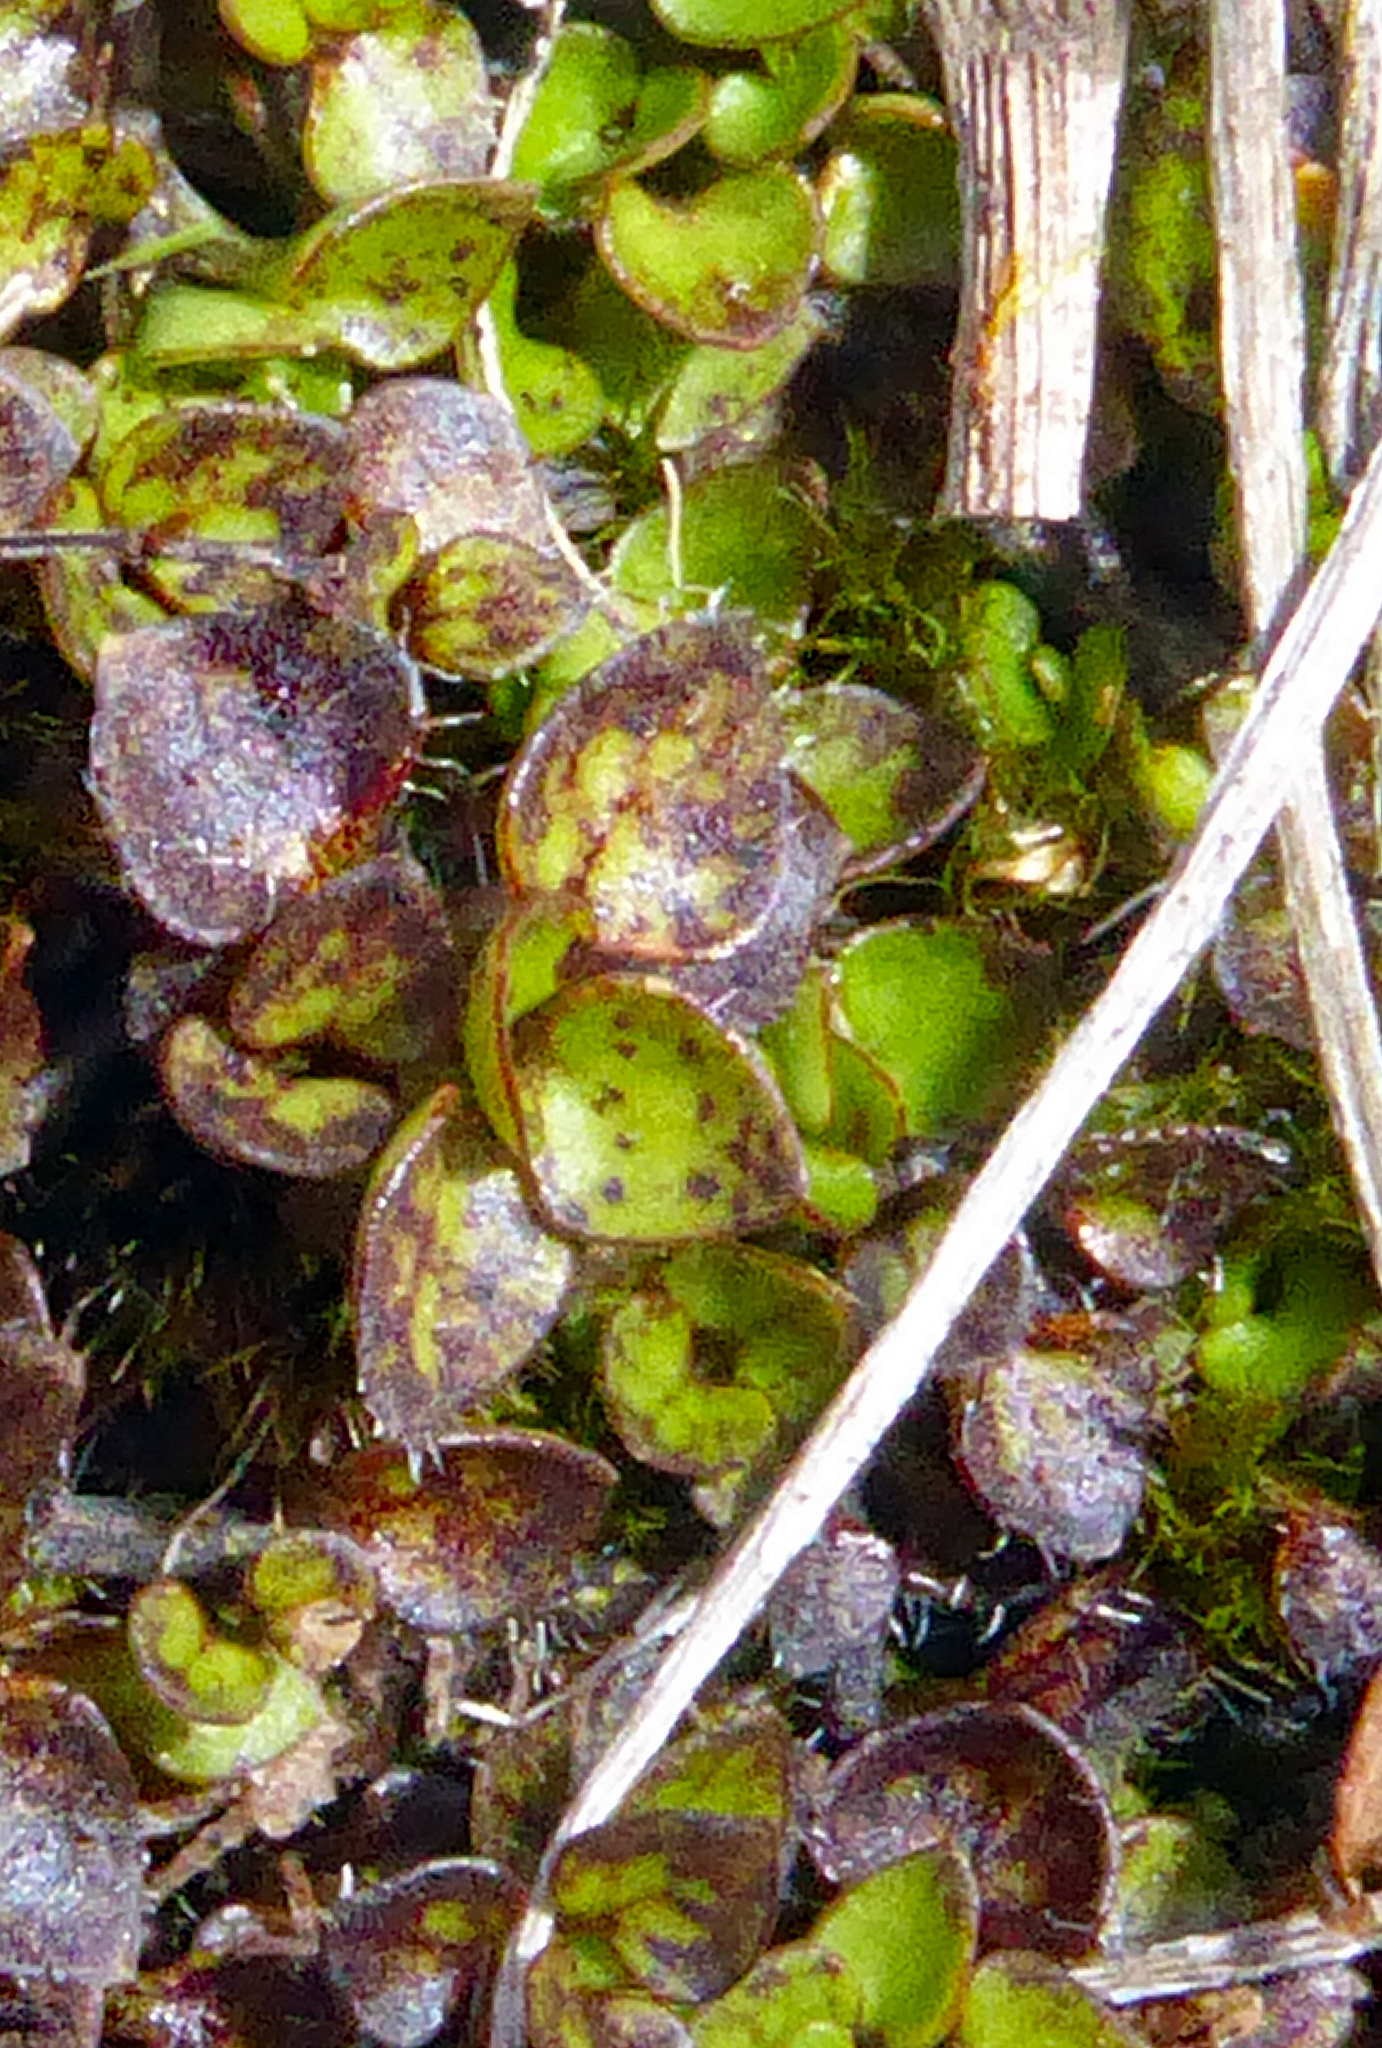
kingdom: Plantae
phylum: Tracheophyta
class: Magnoliopsida
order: Gentianales
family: Rubiaceae
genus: Nertera
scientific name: Nertera ciliata
